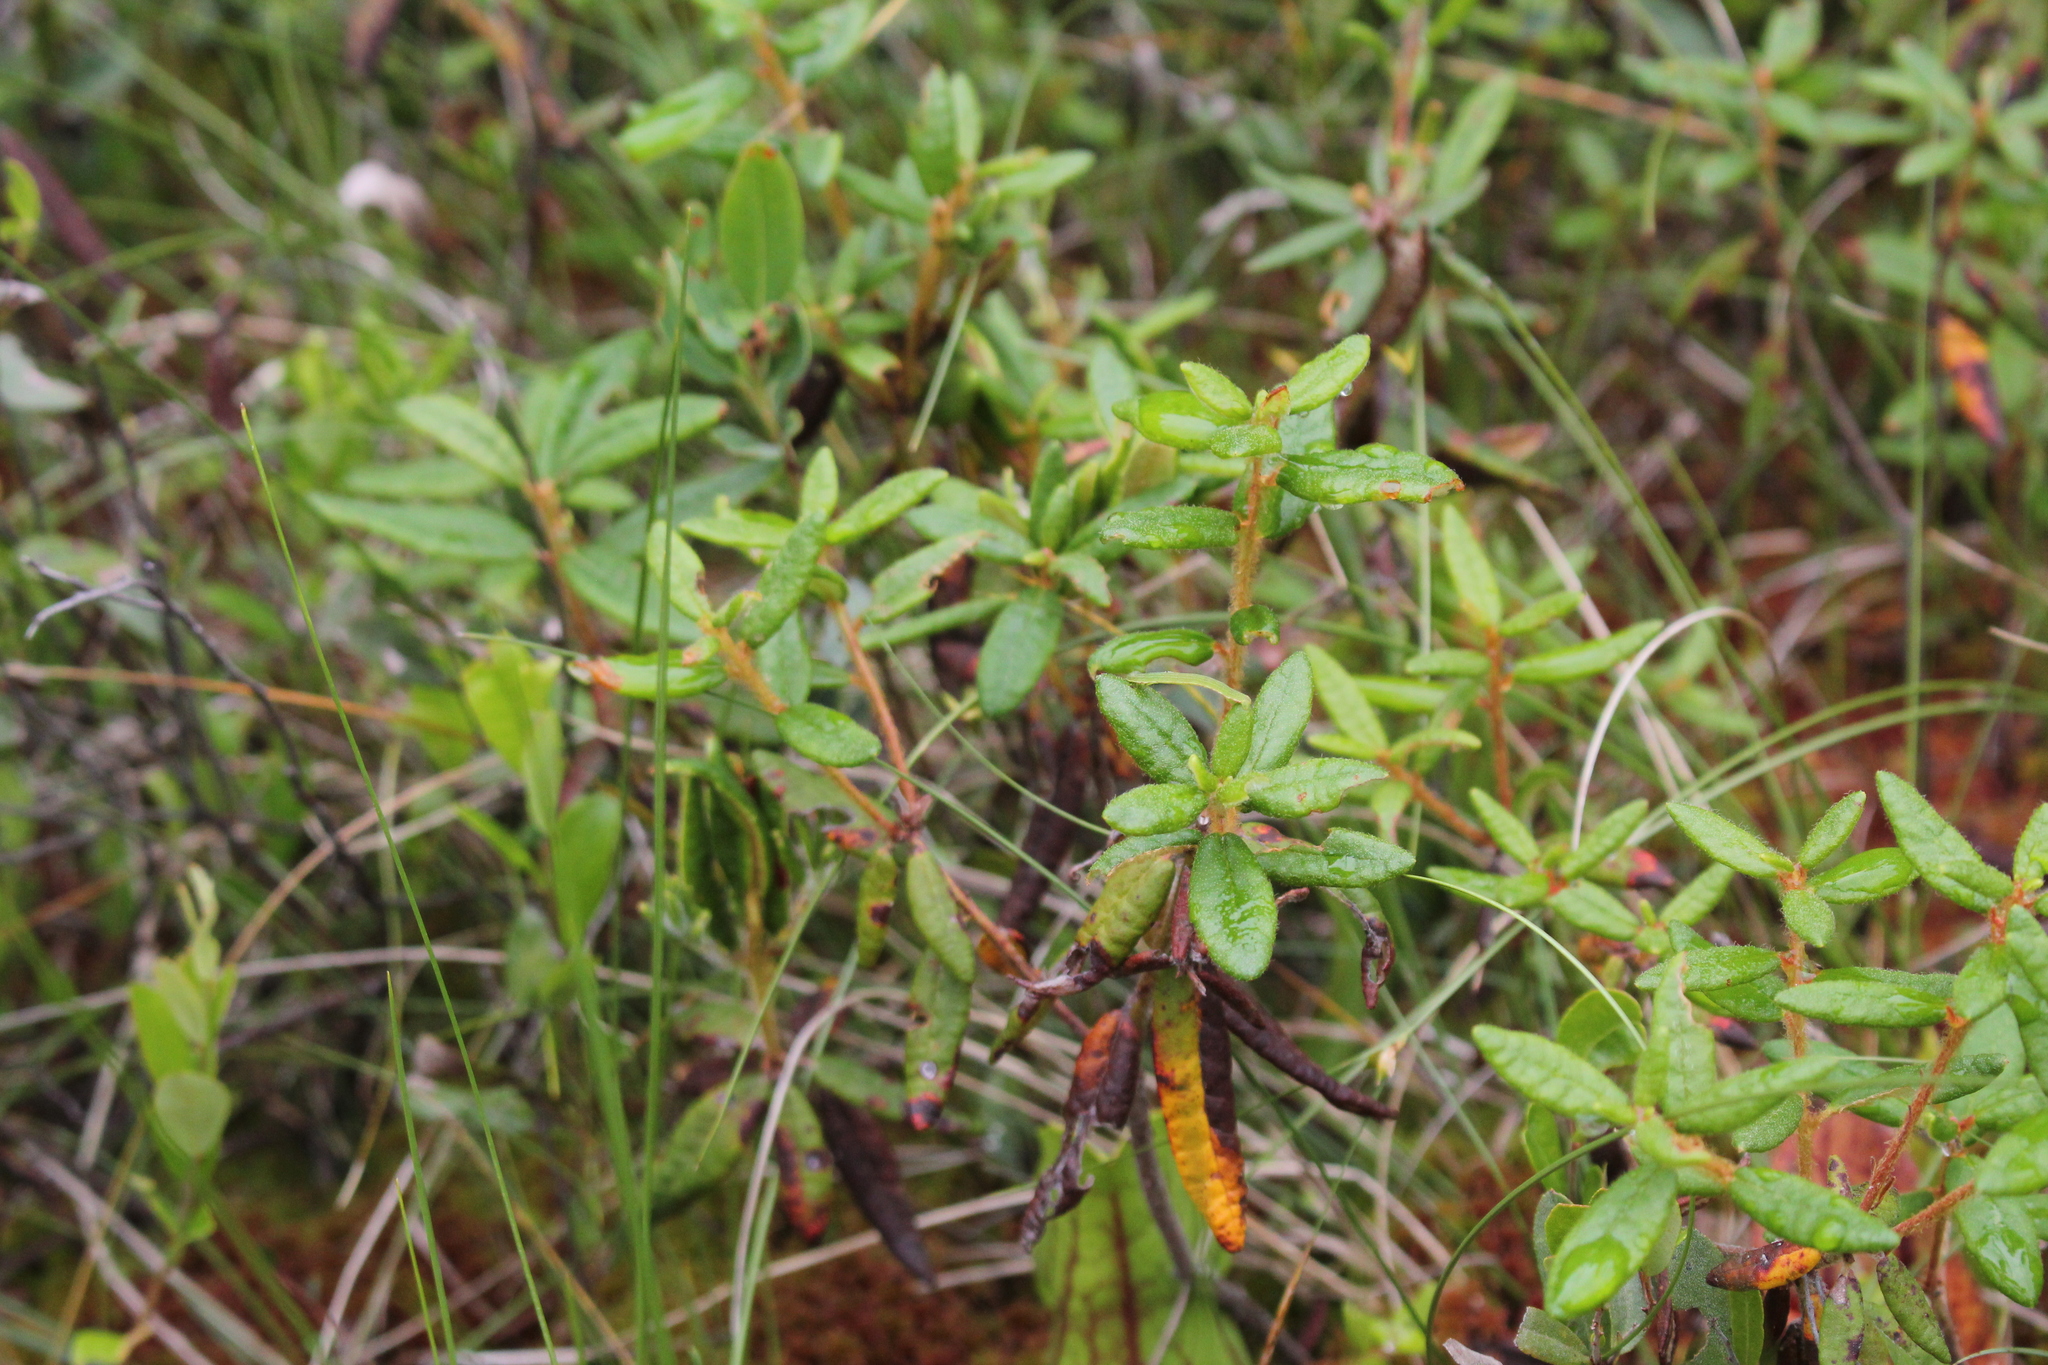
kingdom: Plantae
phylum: Tracheophyta
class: Magnoliopsida
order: Ericales
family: Ericaceae
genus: Rhododendron
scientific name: Rhododendron groenlandicum
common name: Bog labrador tea
